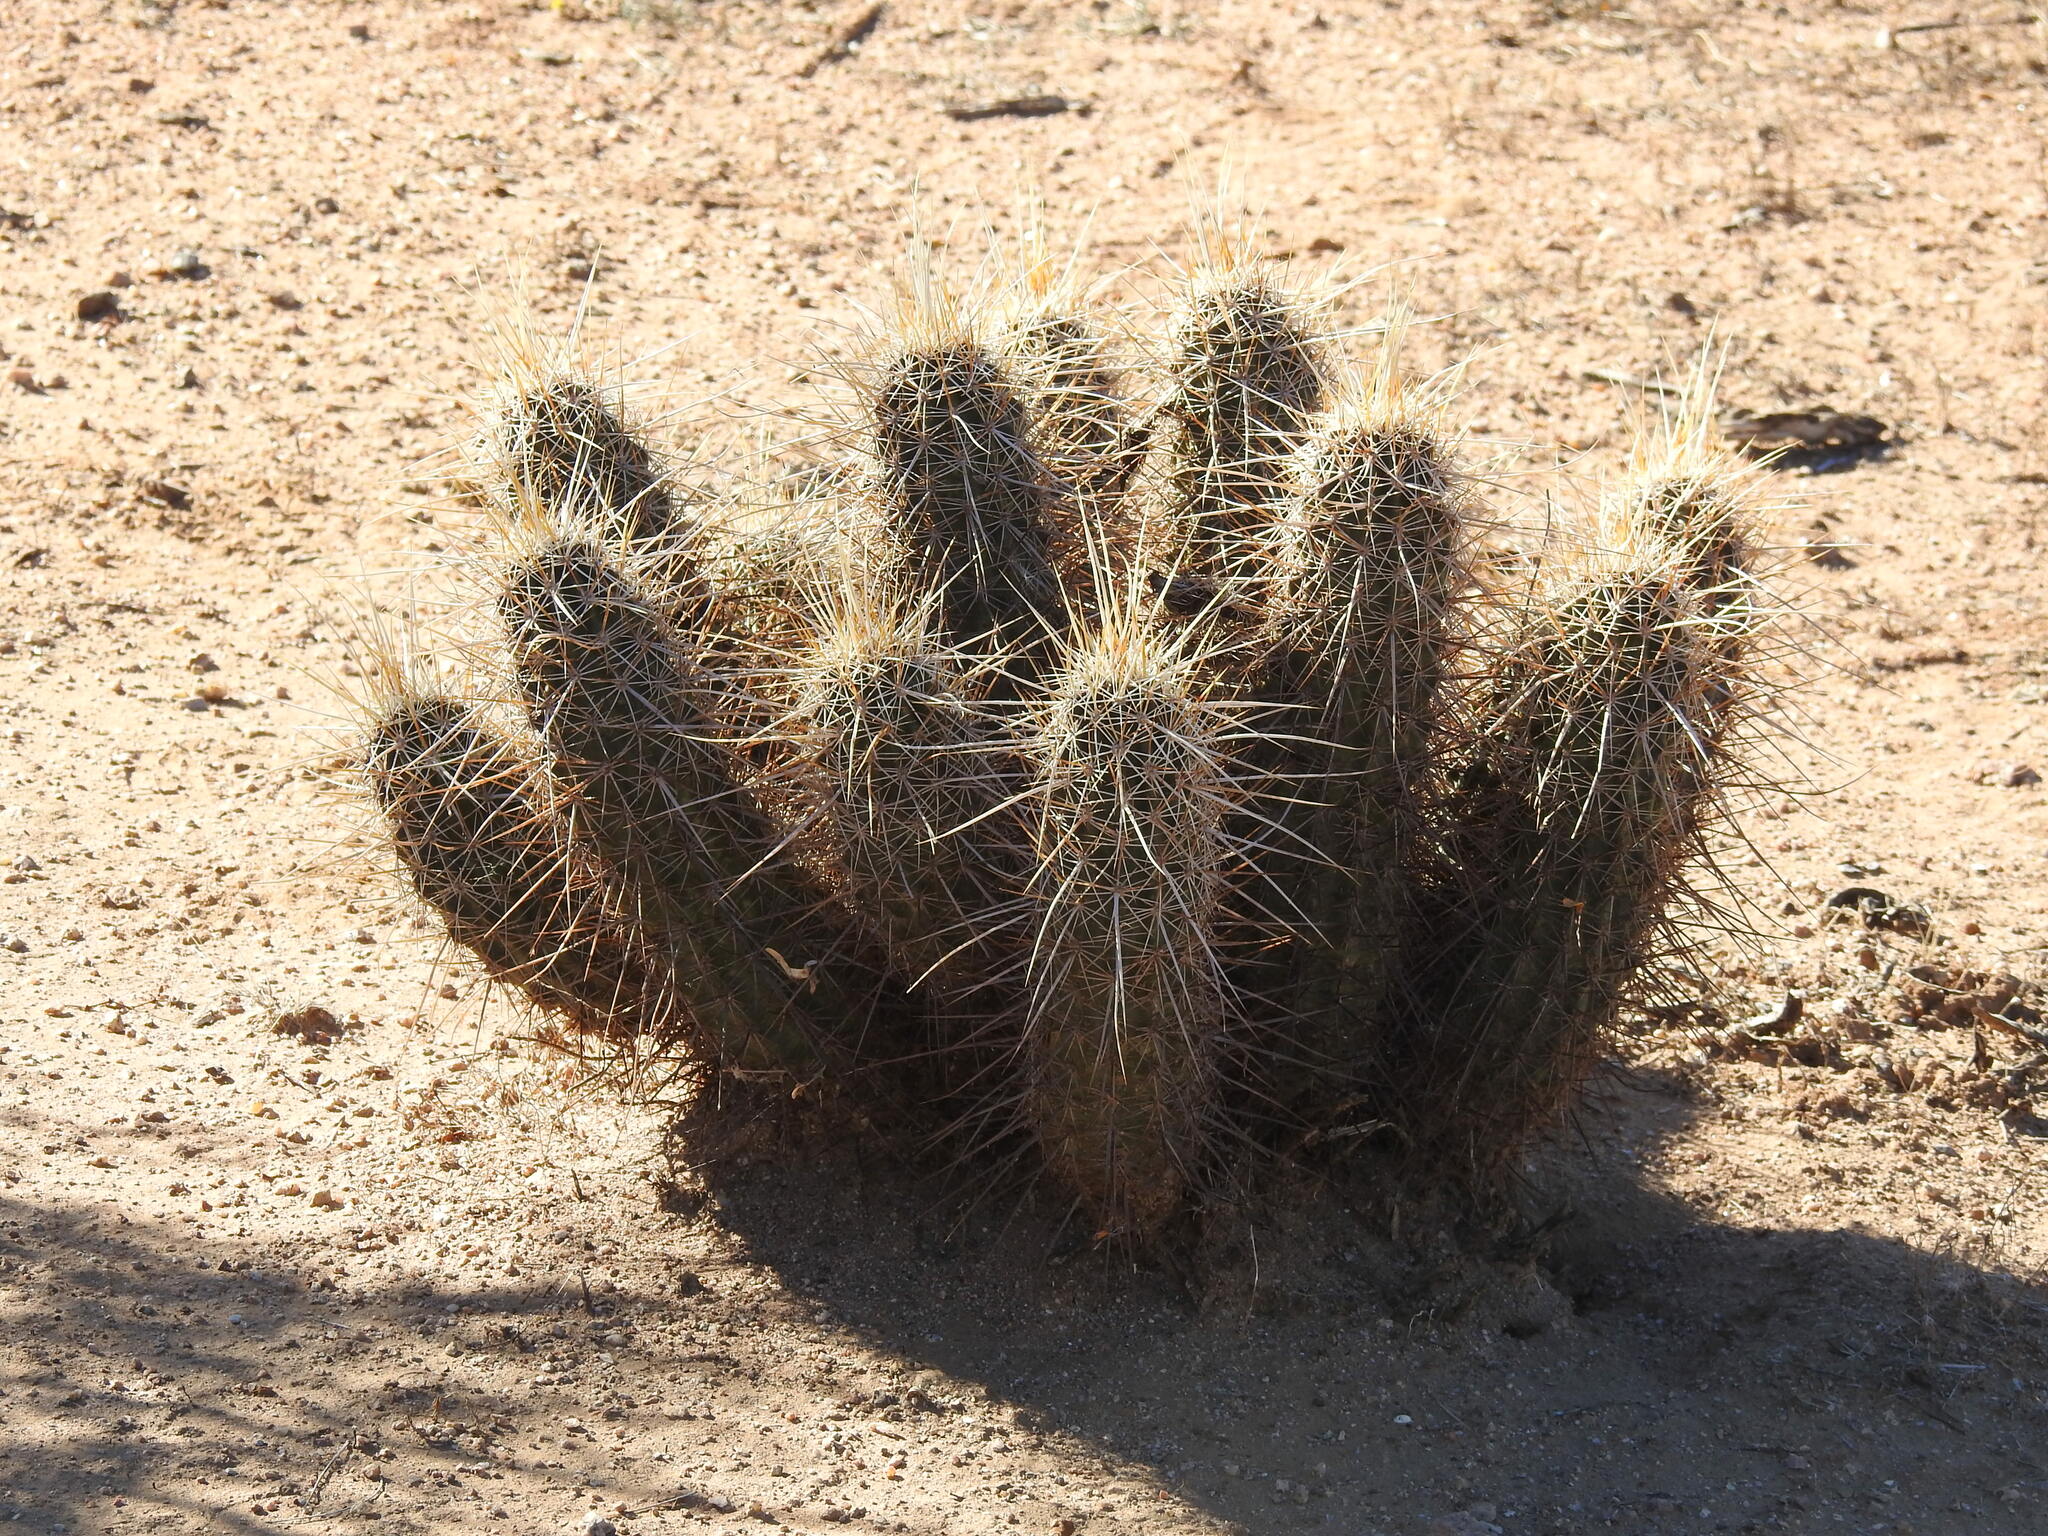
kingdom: Plantae
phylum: Tracheophyta
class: Magnoliopsida
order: Caryophyllales
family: Cactaceae
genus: Echinocereus
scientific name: Echinocereus engelmannii
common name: Engelmann's hedgehog cactus
